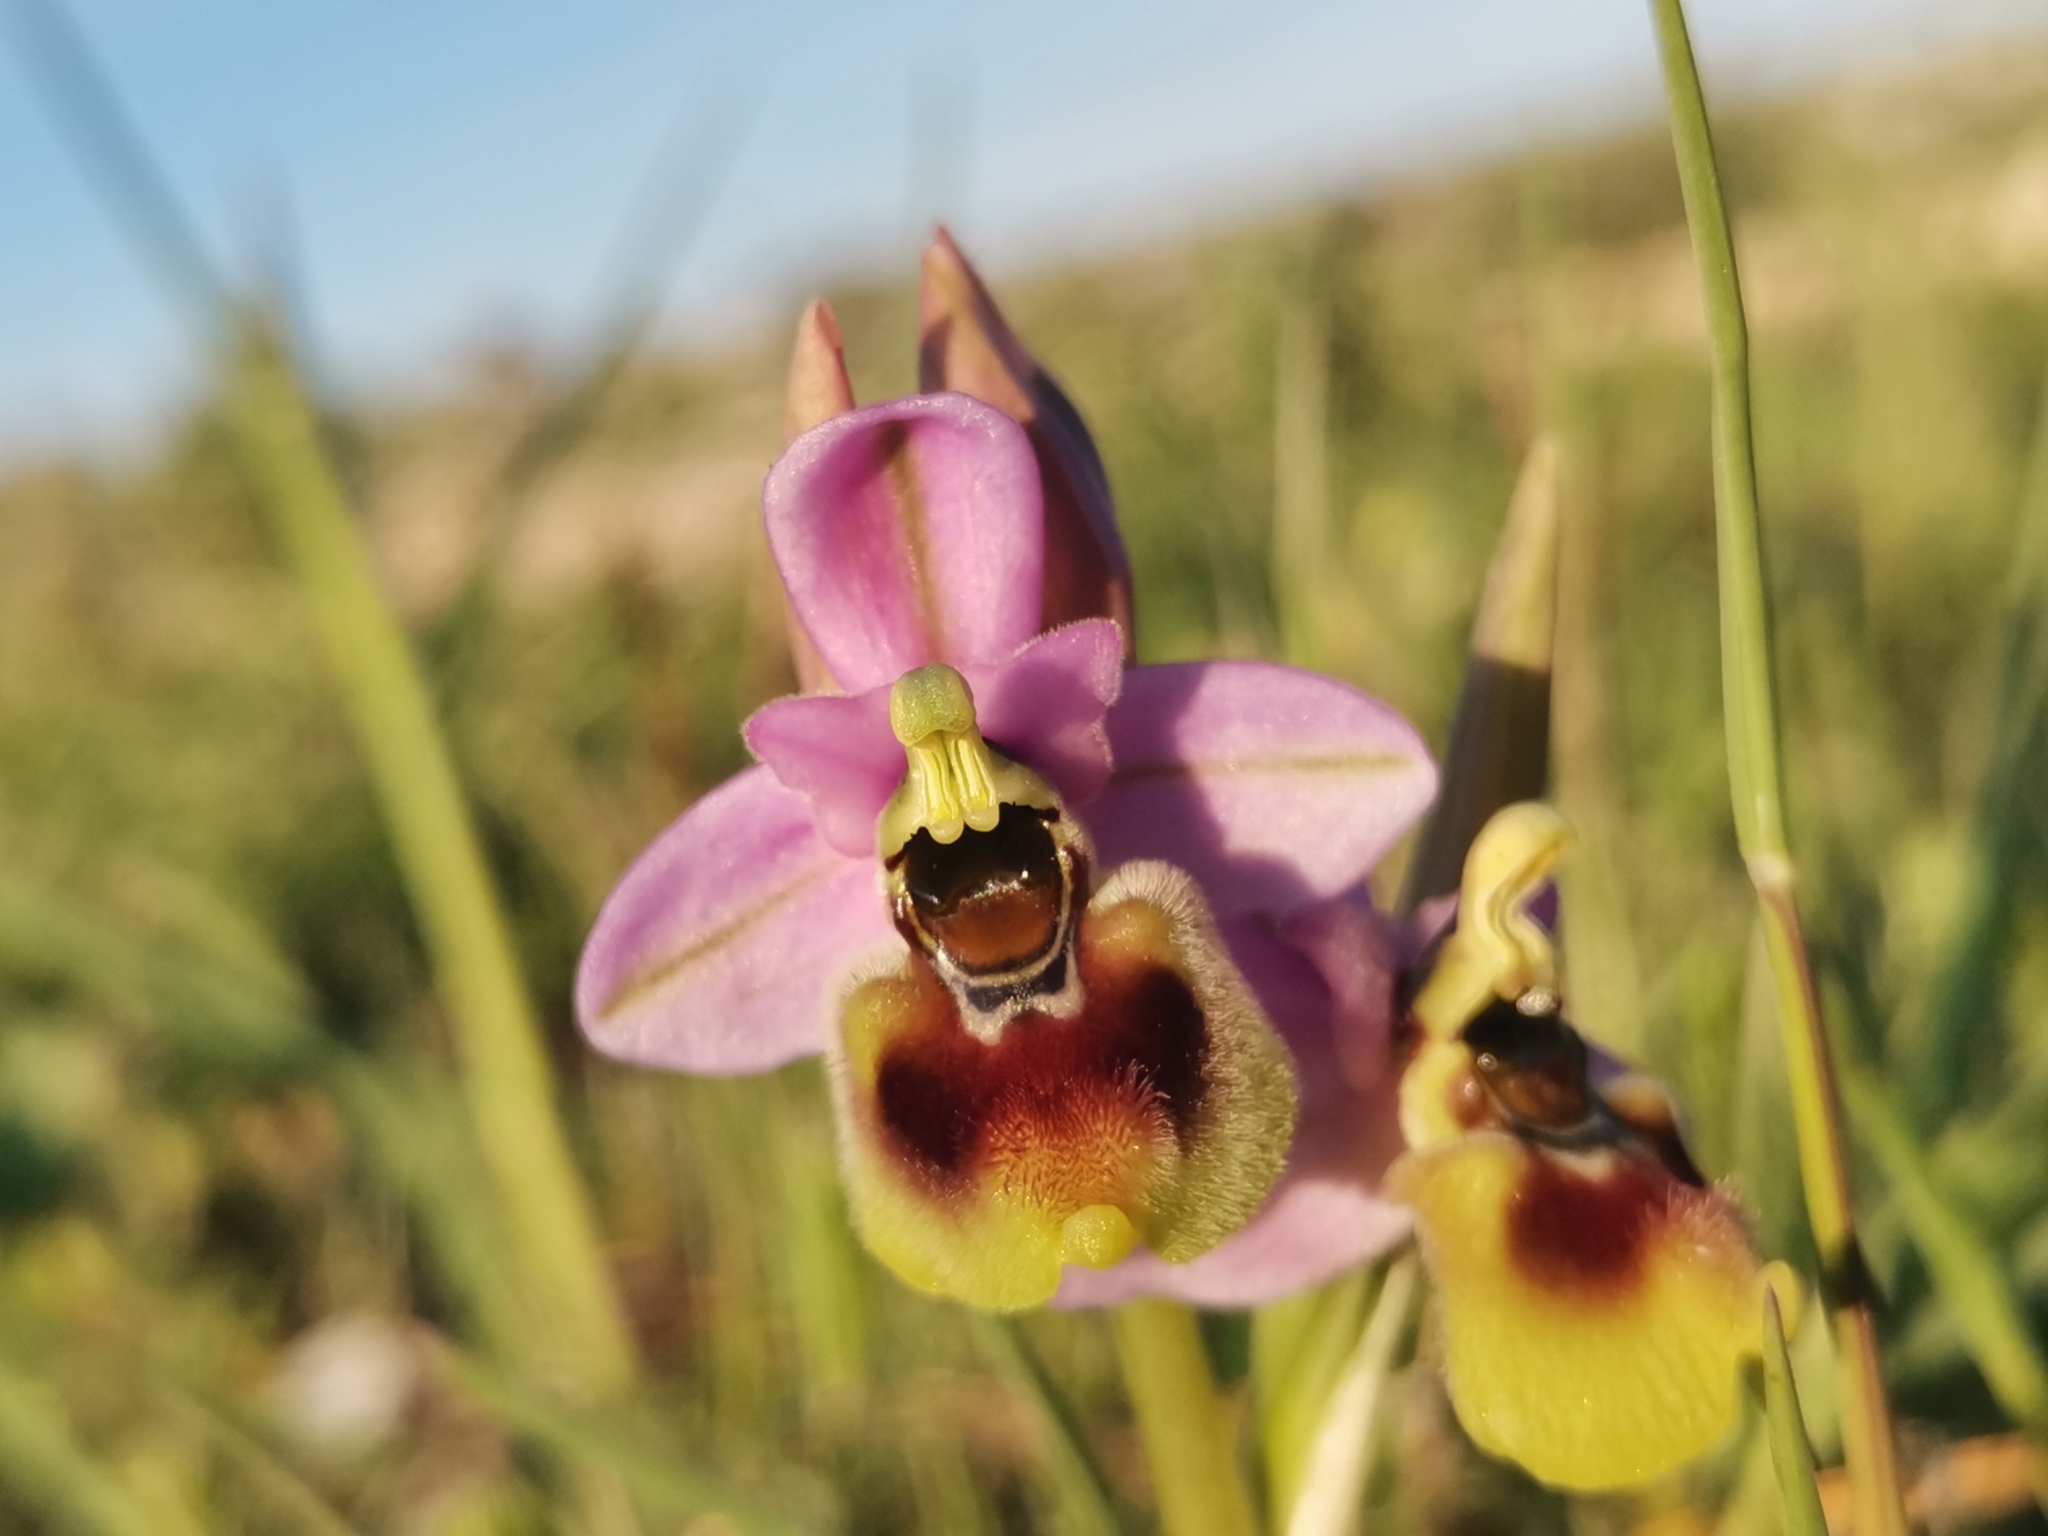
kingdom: Plantae
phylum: Tracheophyta
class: Liliopsida
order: Asparagales
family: Orchidaceae
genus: Ophrys
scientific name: Ophrys tenthredinifera
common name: Sawfly orchid
